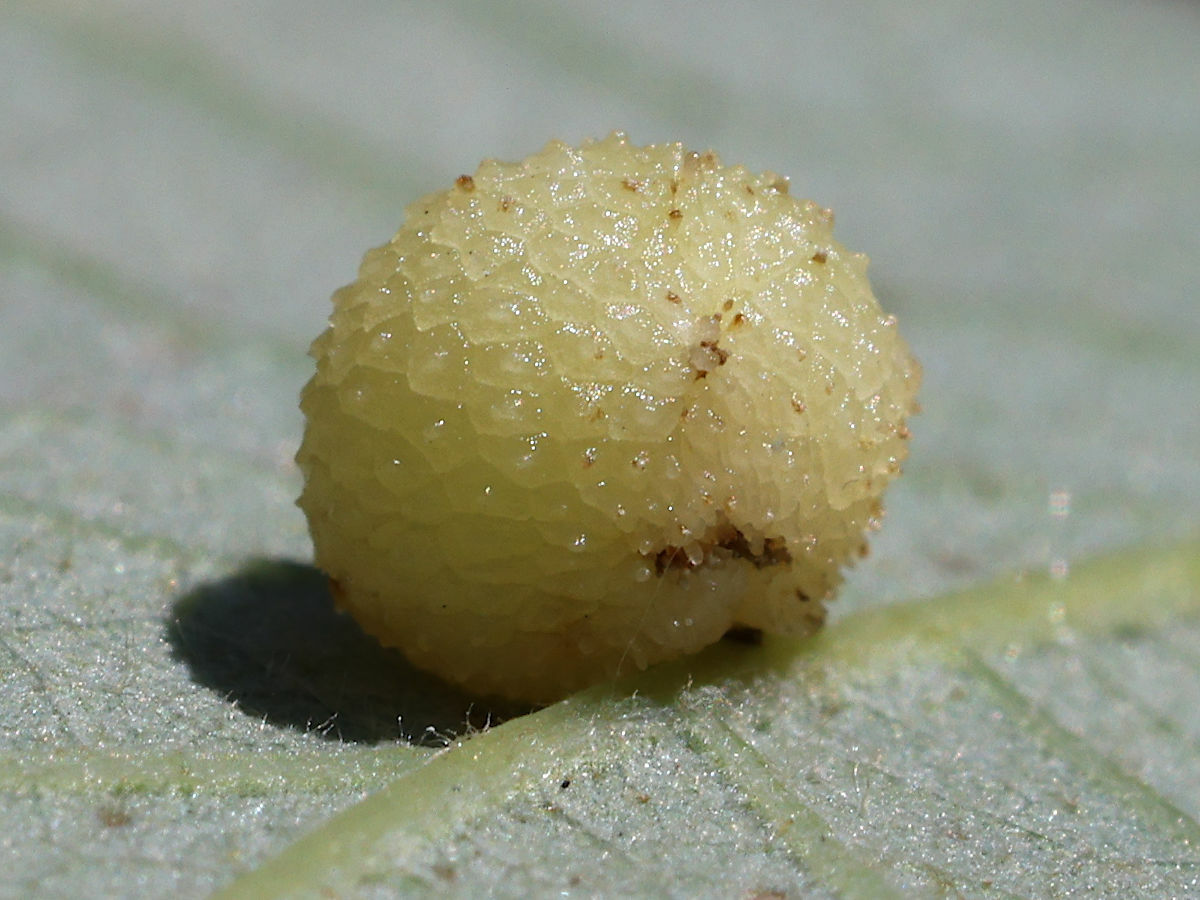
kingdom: Animalia
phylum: Arthropoda
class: Insecta
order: Hymenoptera
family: Cynipidae
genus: Acraspis
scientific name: Acraspis quercushirta
